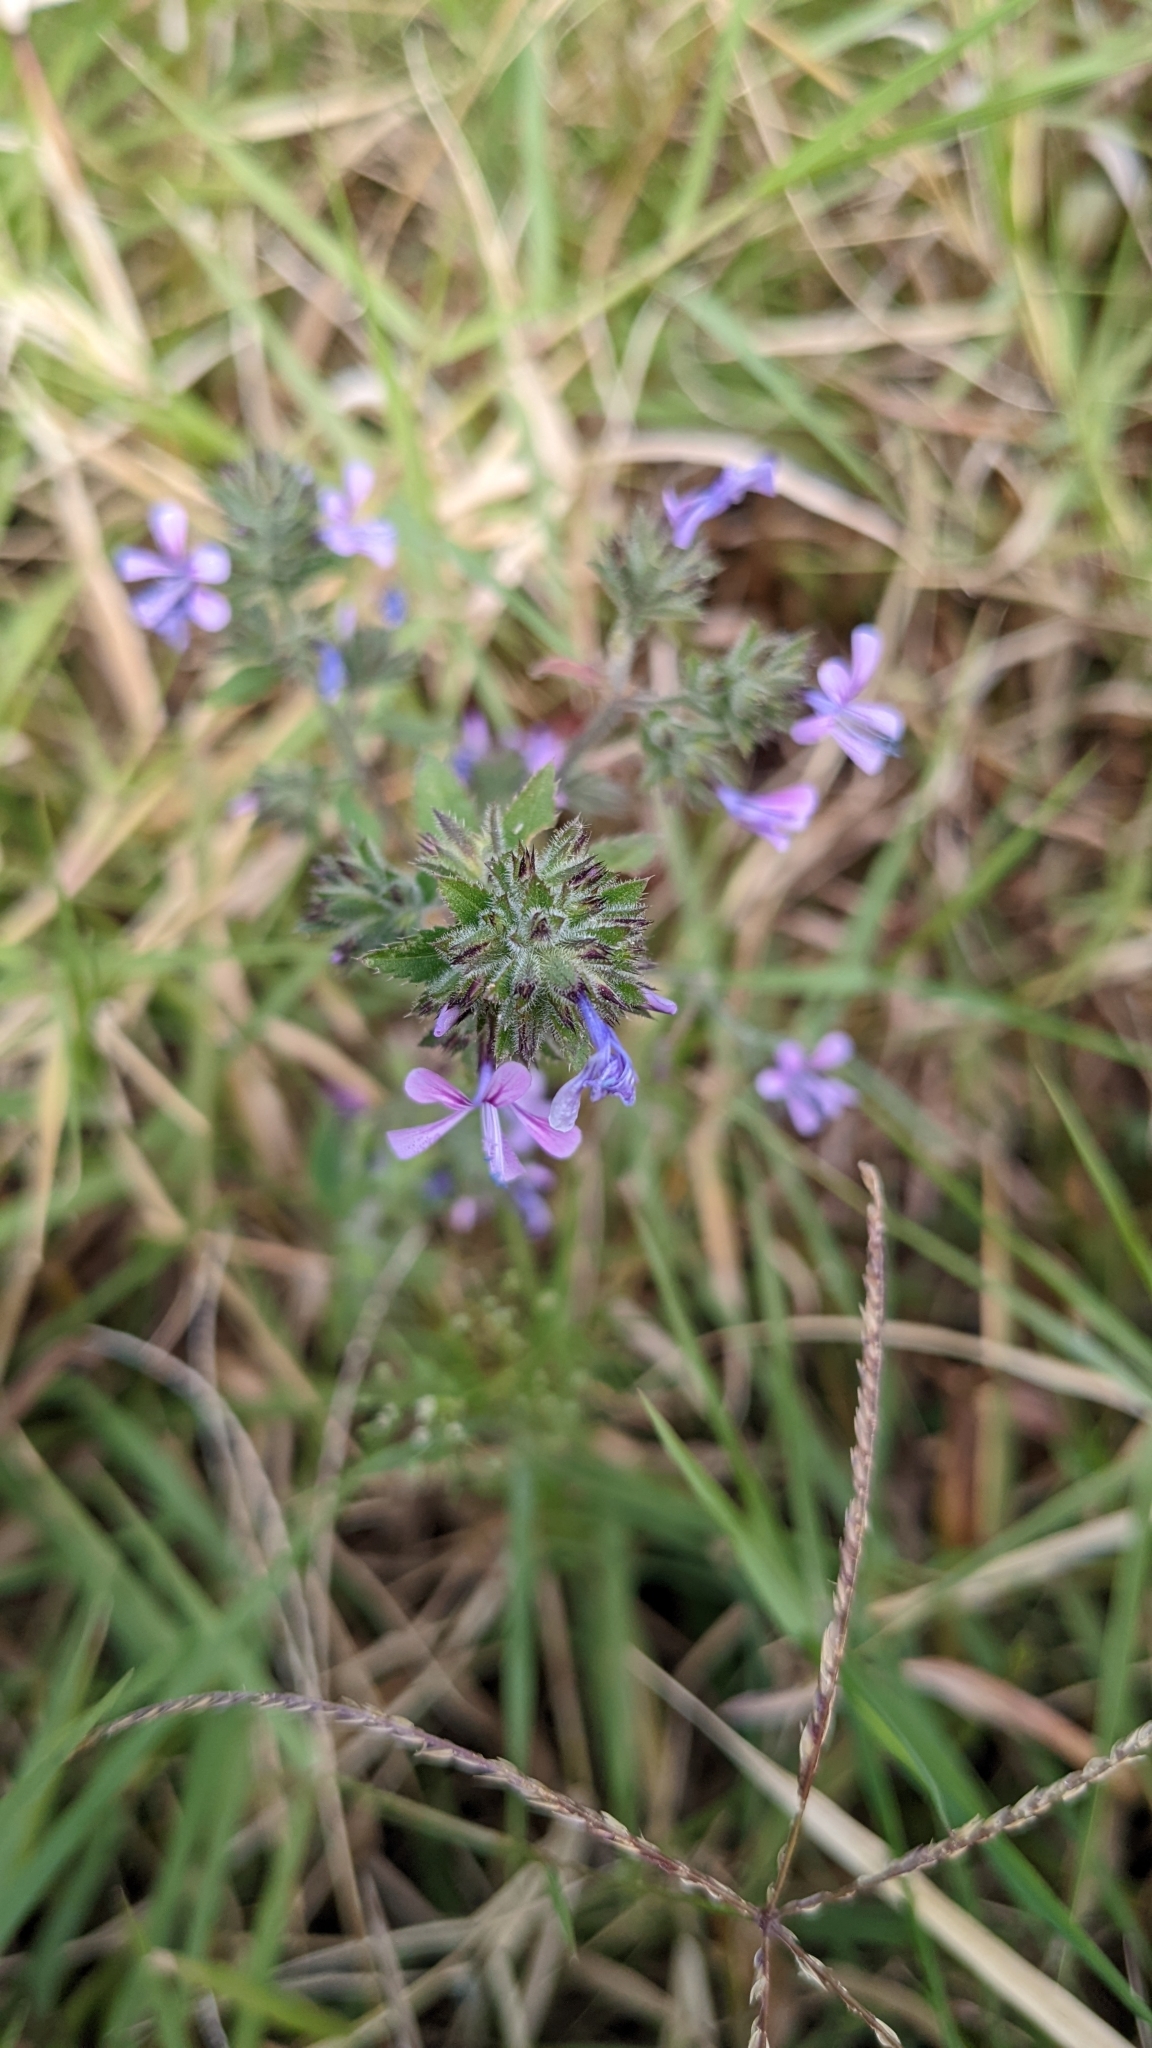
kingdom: Plantae
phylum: Tracheophyta
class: Magnoliopsida
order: Ericales
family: Polemoniaceae
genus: Loeselia
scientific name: Loeselia glandulosa
